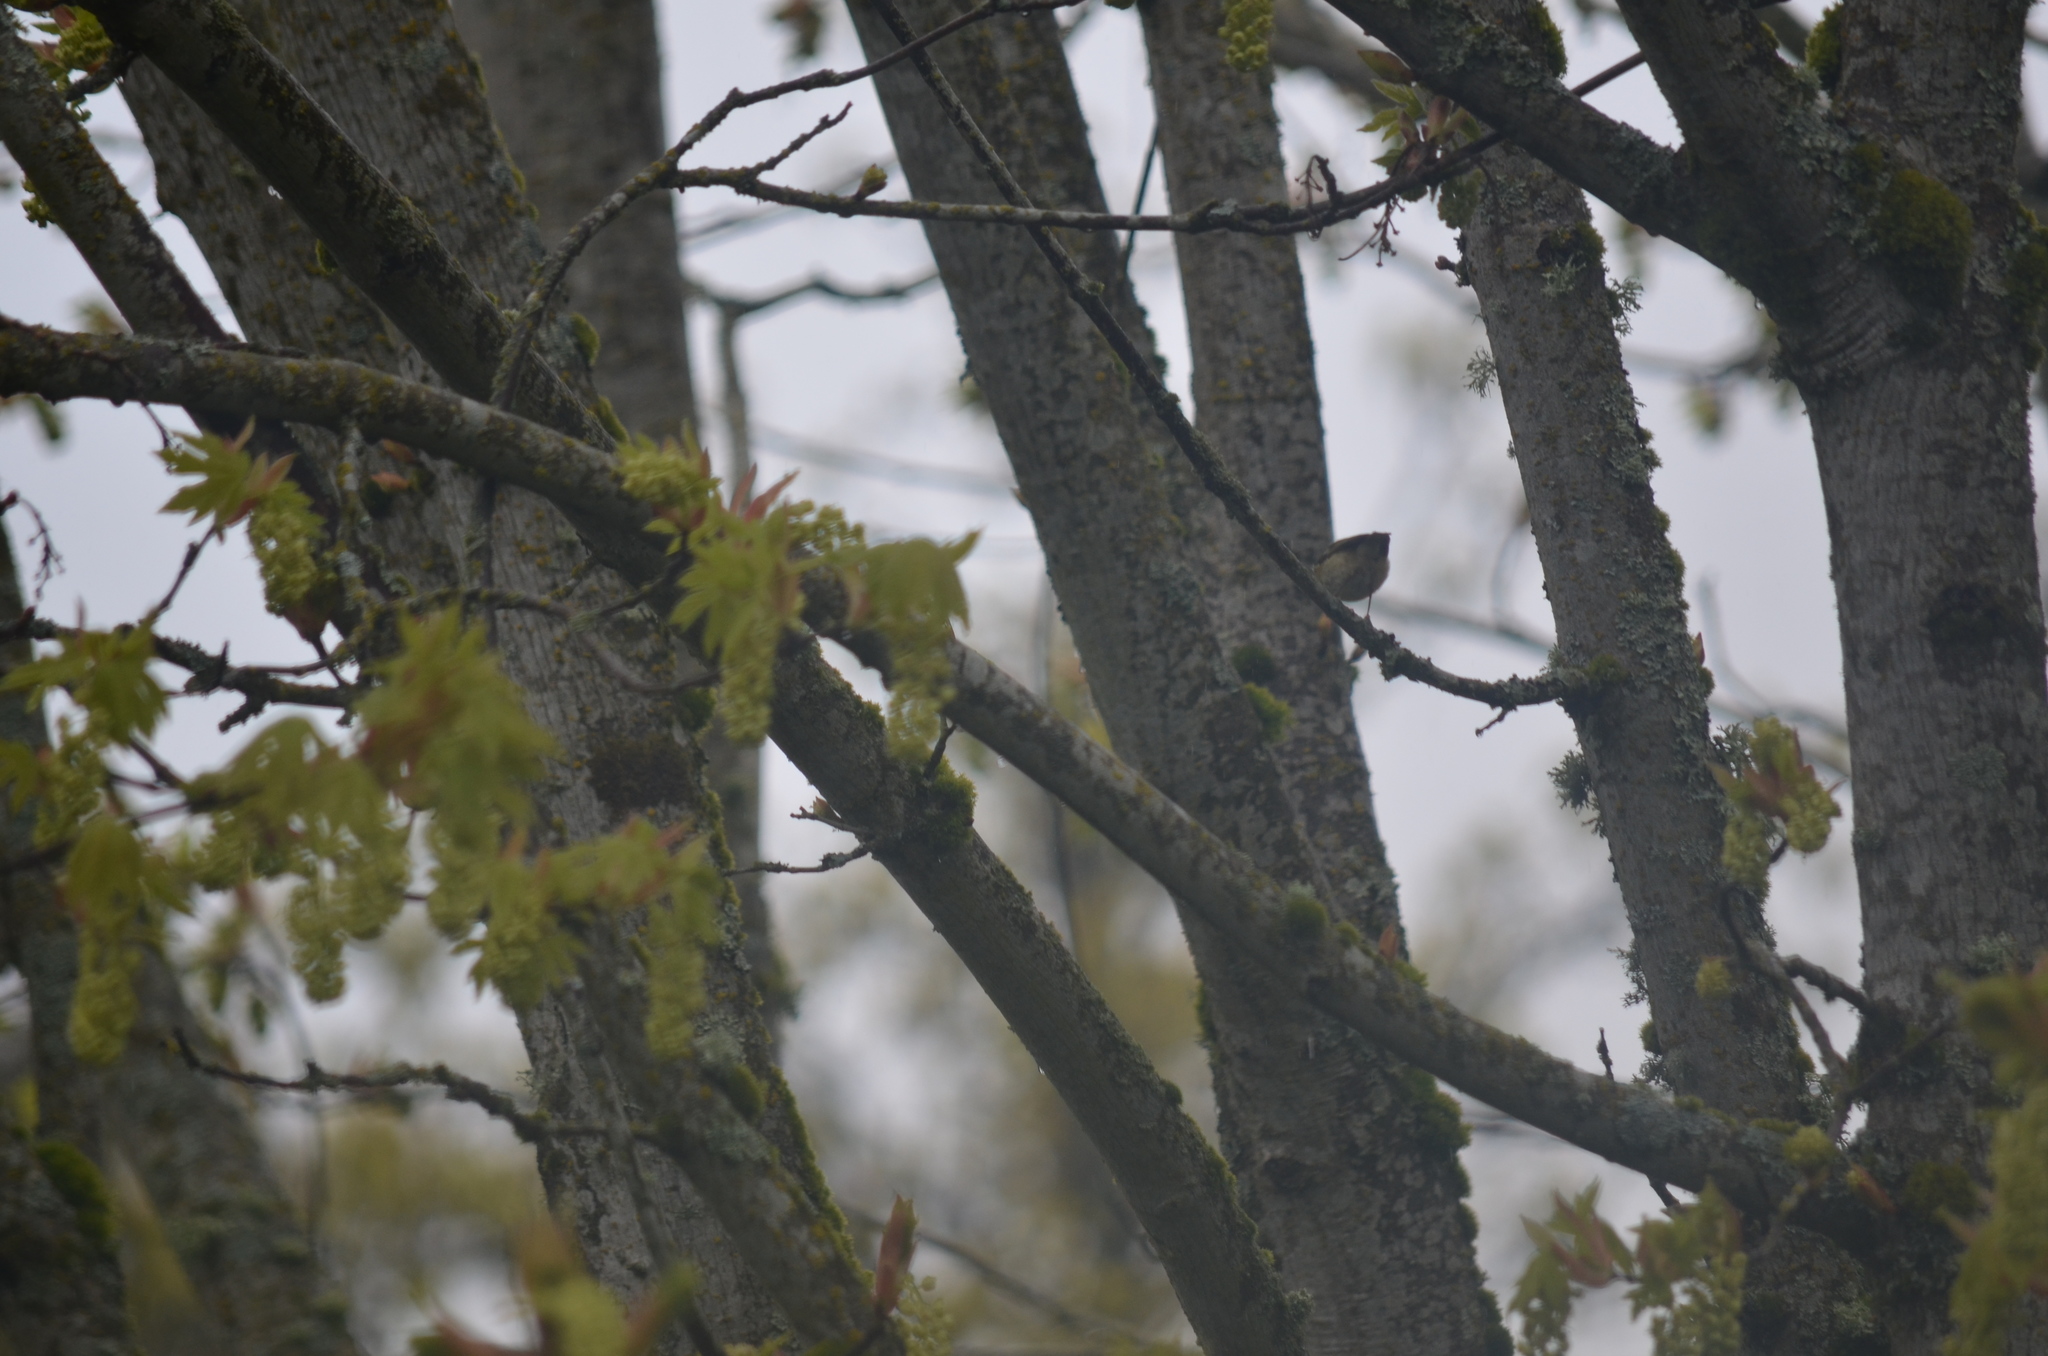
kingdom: Animalia
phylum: Chordata
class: Aves
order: Passeriformes
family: Regulidae
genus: Regulus
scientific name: Regulus calendula
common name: Ruby-crowned kinglet
